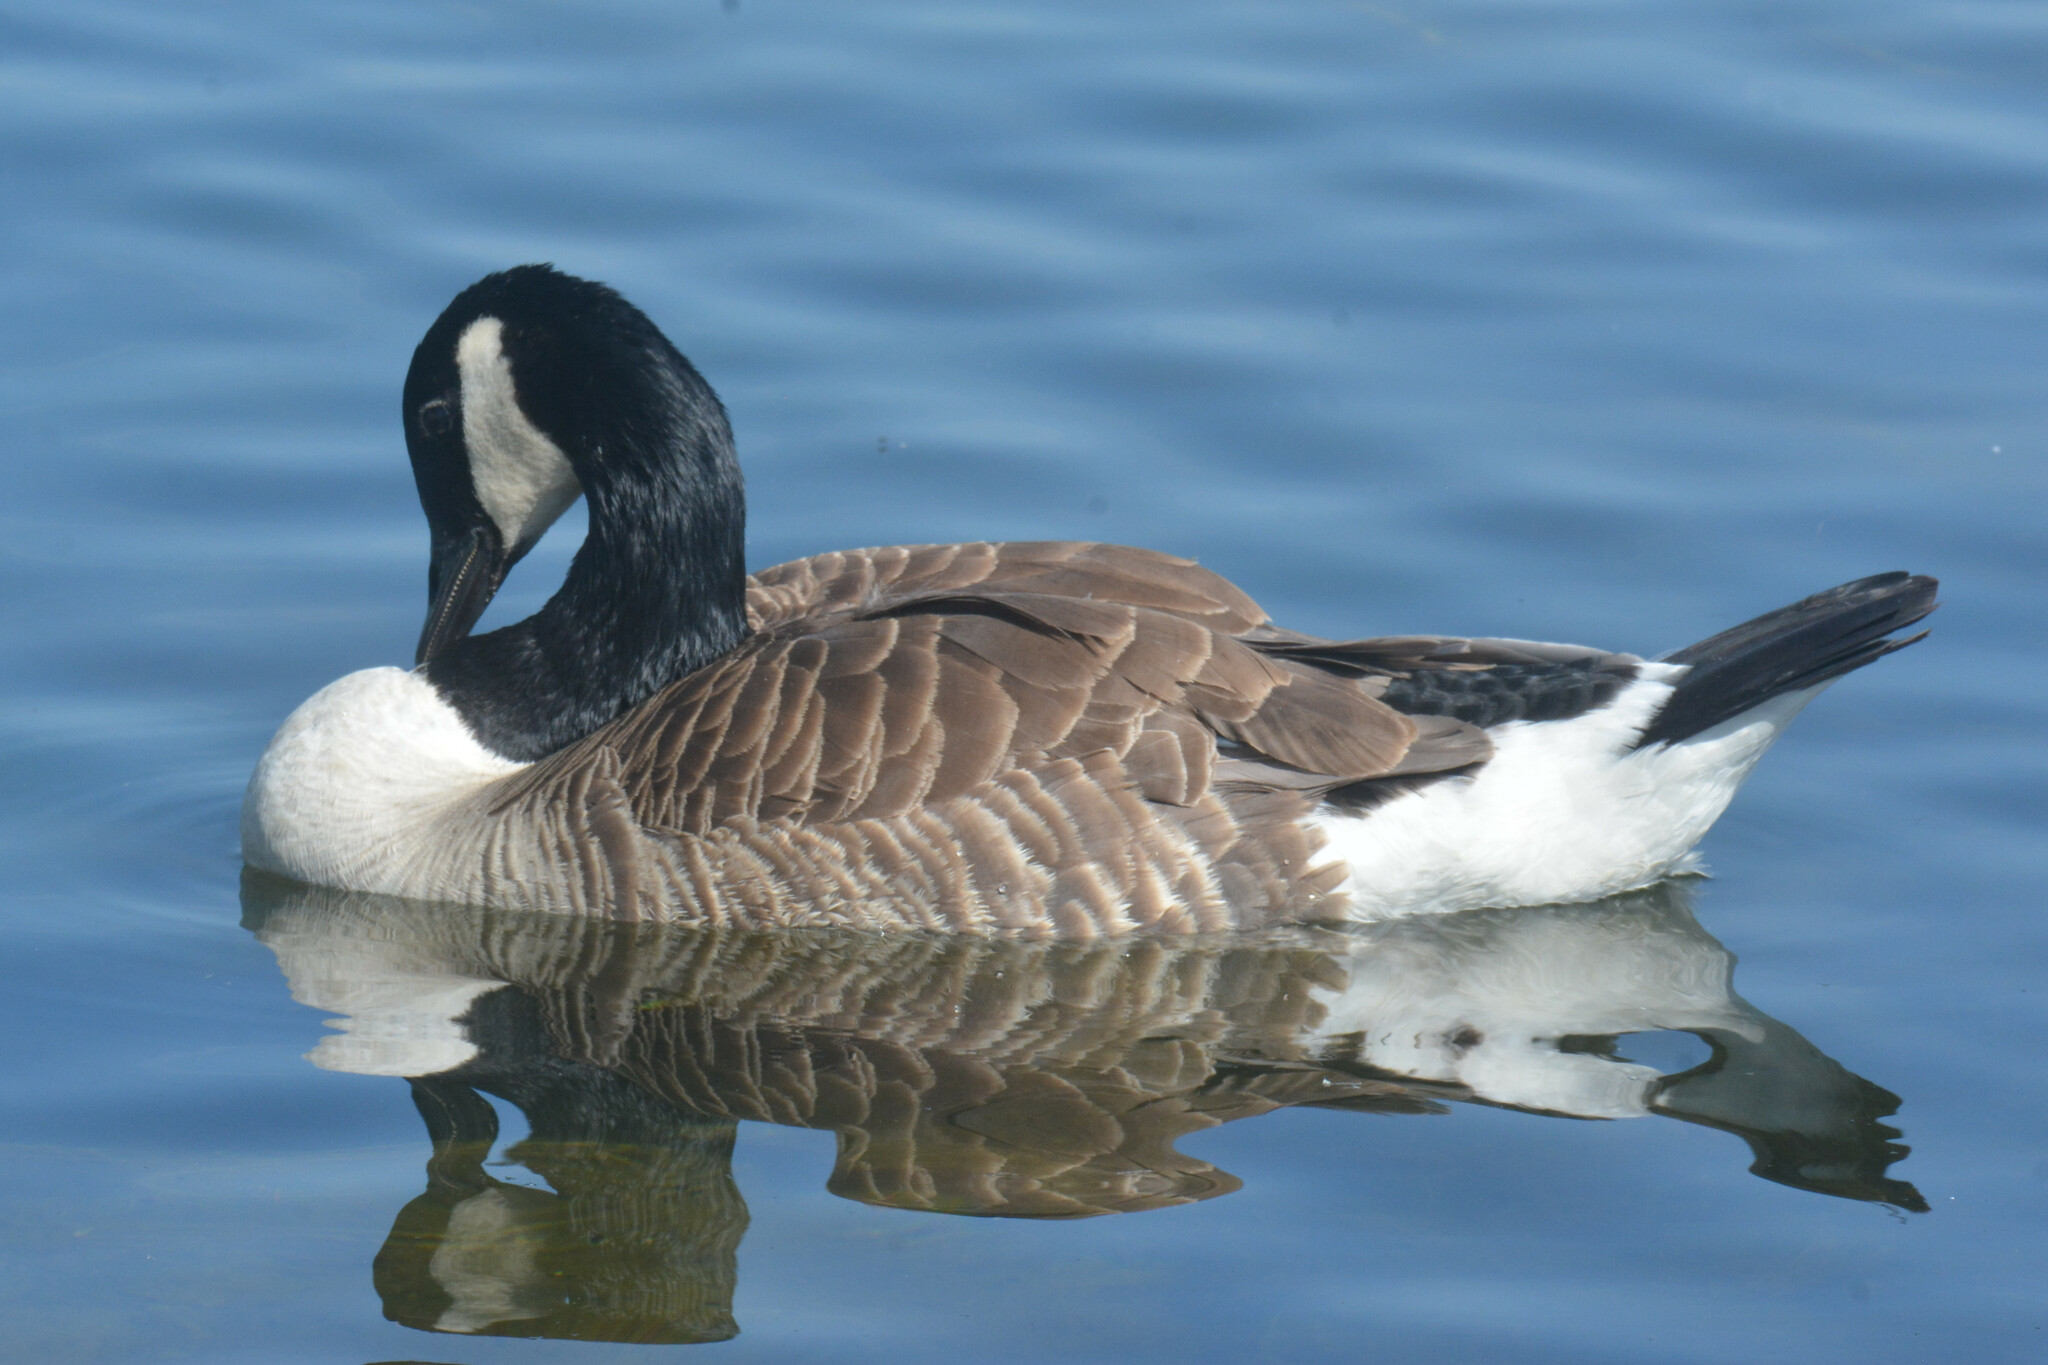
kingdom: Animalia
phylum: Chordata
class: Aves
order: Anseriformes
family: Anatidae
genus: Branta
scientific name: Branta canadensis
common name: Canada goose
